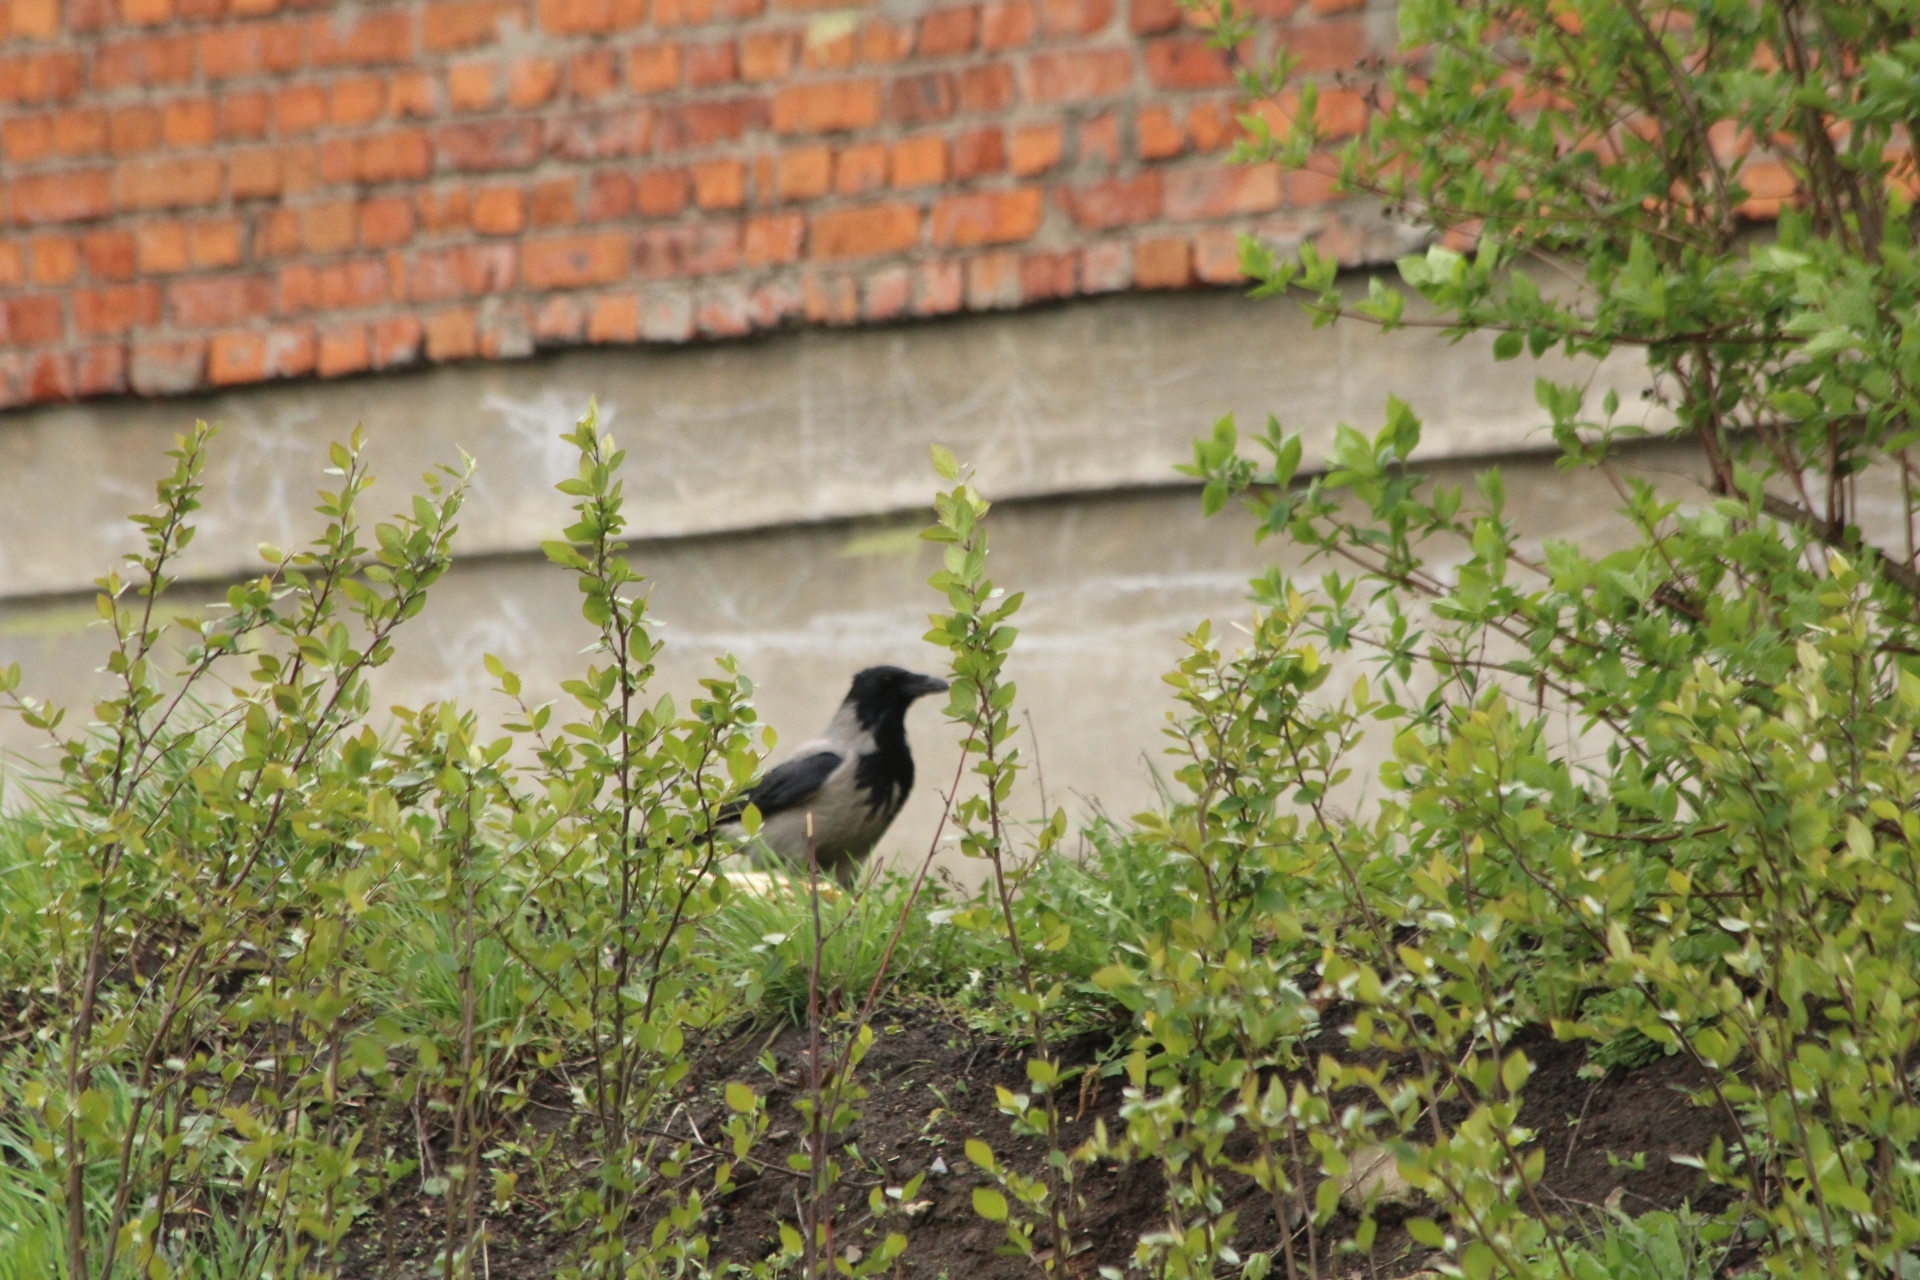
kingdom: Animalia
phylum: Chordata
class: Aves
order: Passeriformes
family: Corvidae
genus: Corvus
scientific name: Corvus cornix
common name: Hooded crow
